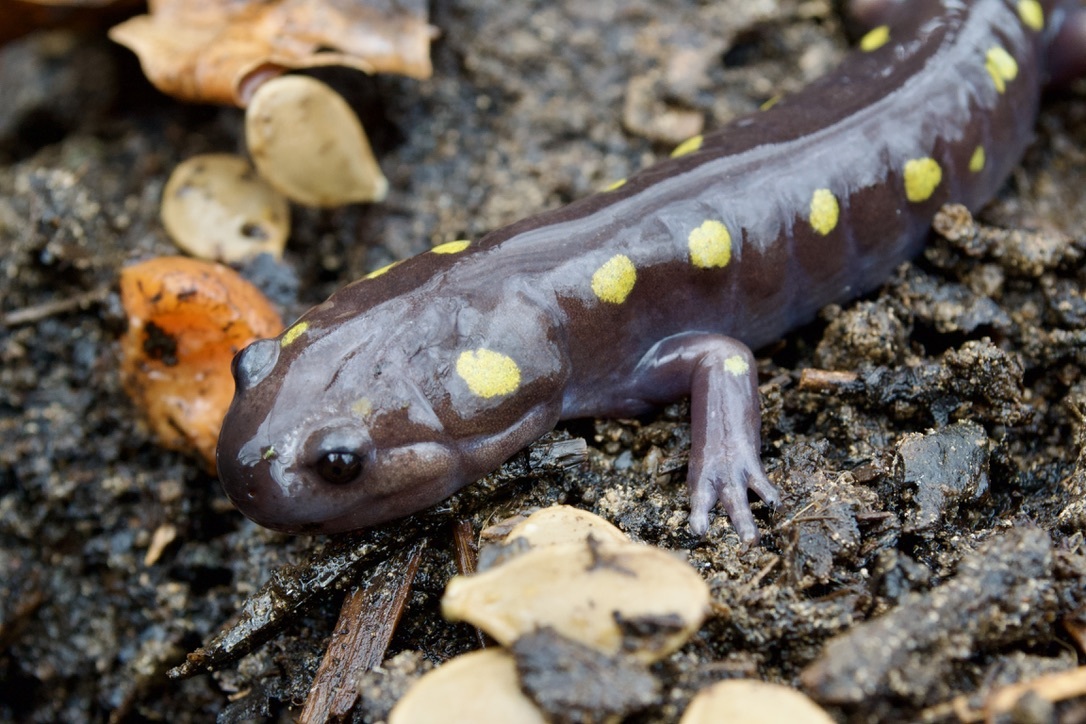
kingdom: Animalia
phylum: Chordata
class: Amphibia
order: Caudata
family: Ambystomatidae
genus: Ambystoma
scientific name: Ambystoma maculatum
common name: Spotted salamander
